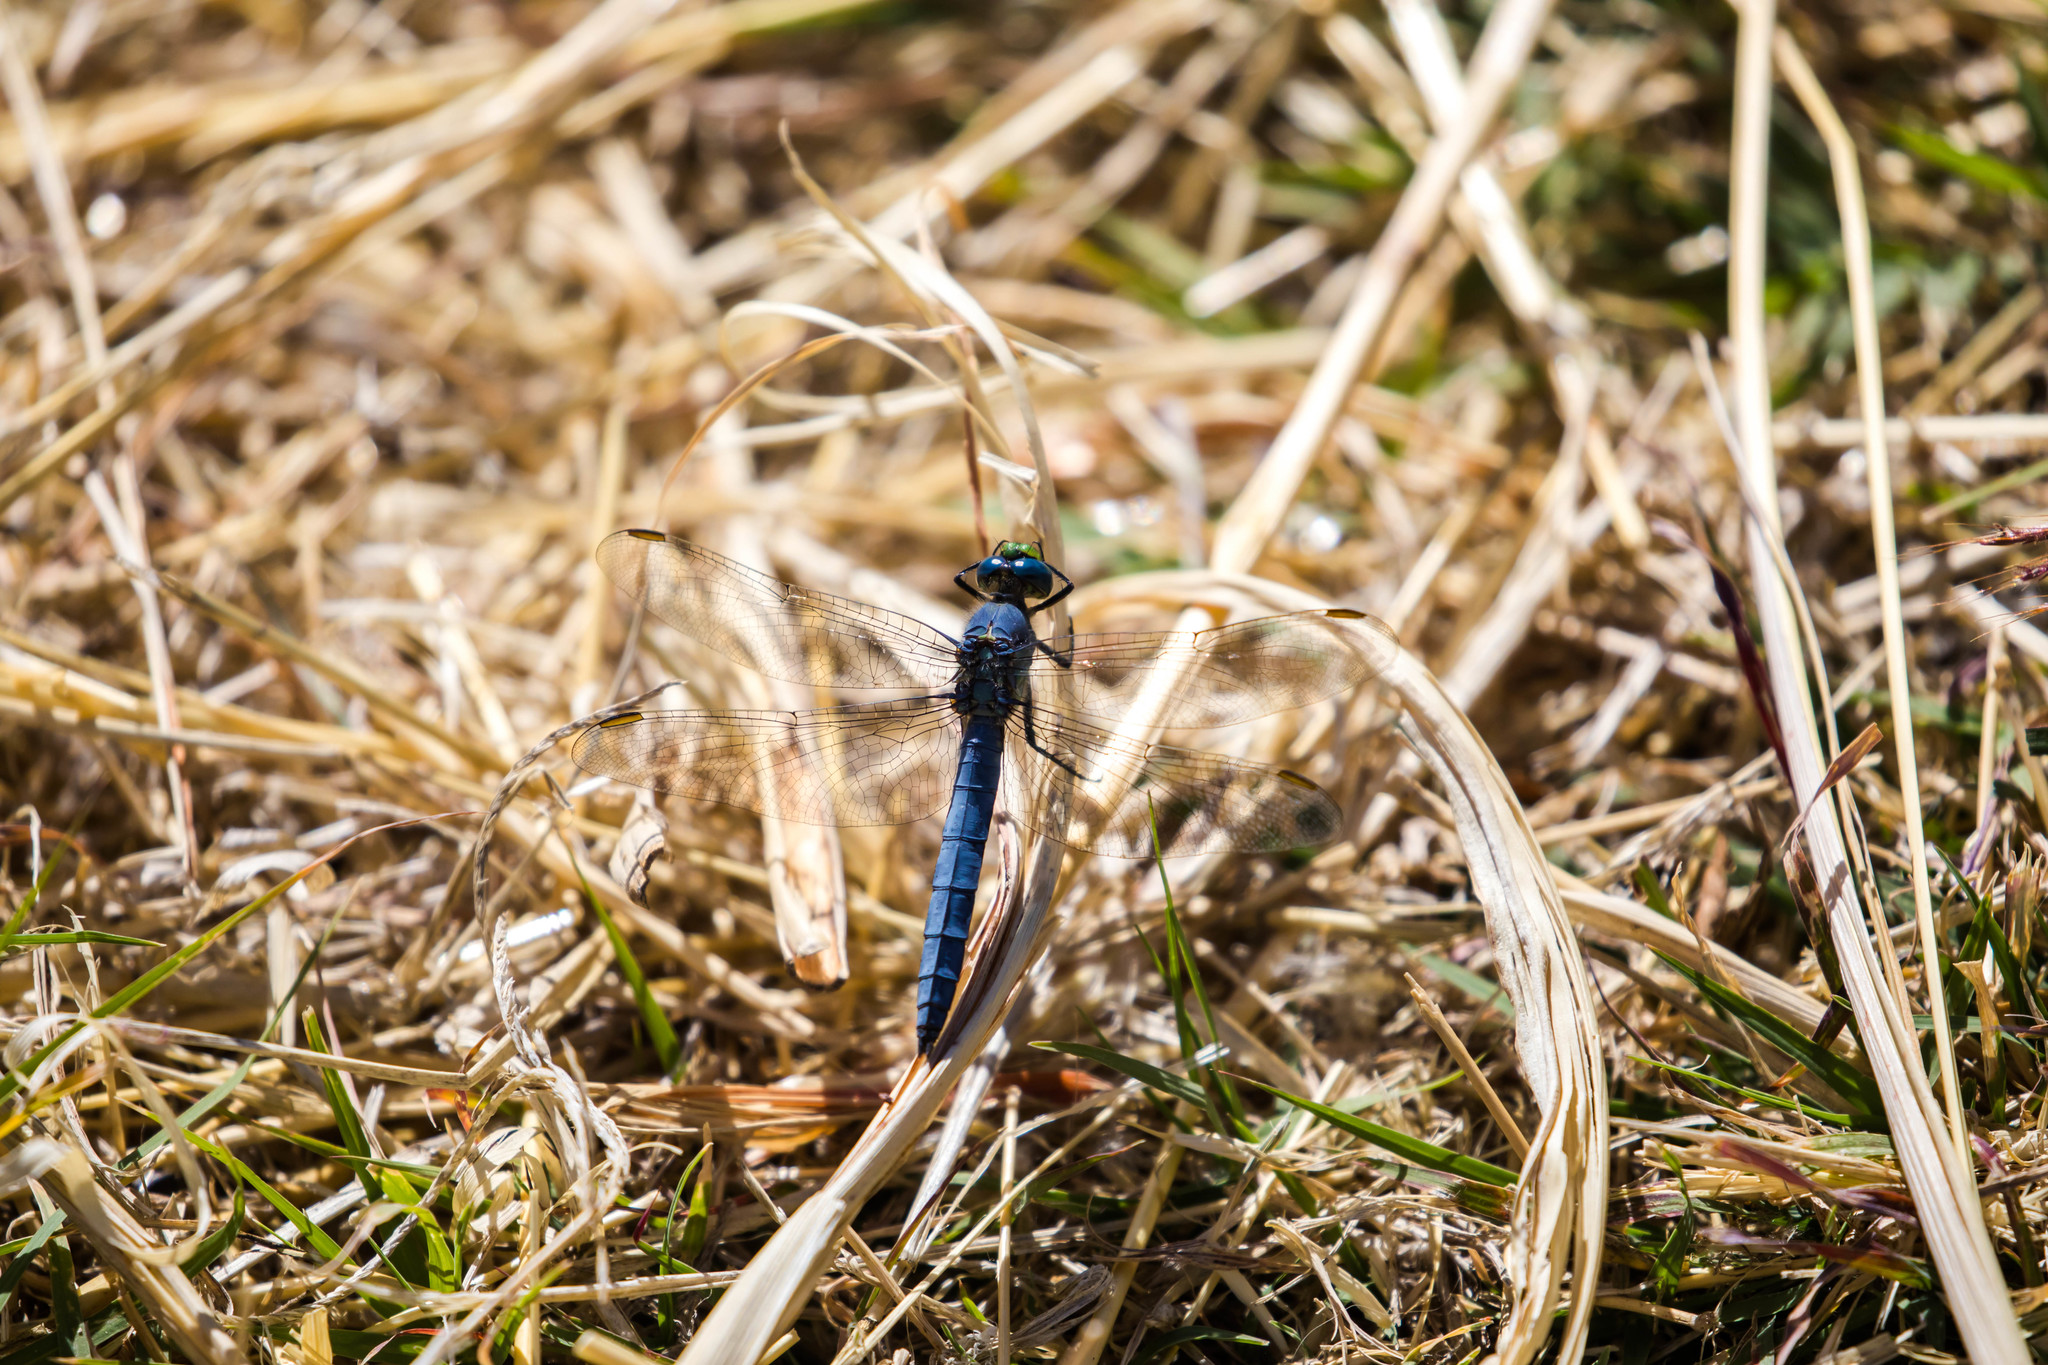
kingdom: Animalia
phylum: Arthropoda
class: Insecta
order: Odonata
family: Libellulidae
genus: Erythemis
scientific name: Erythemis collocata
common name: Western pondhawk
